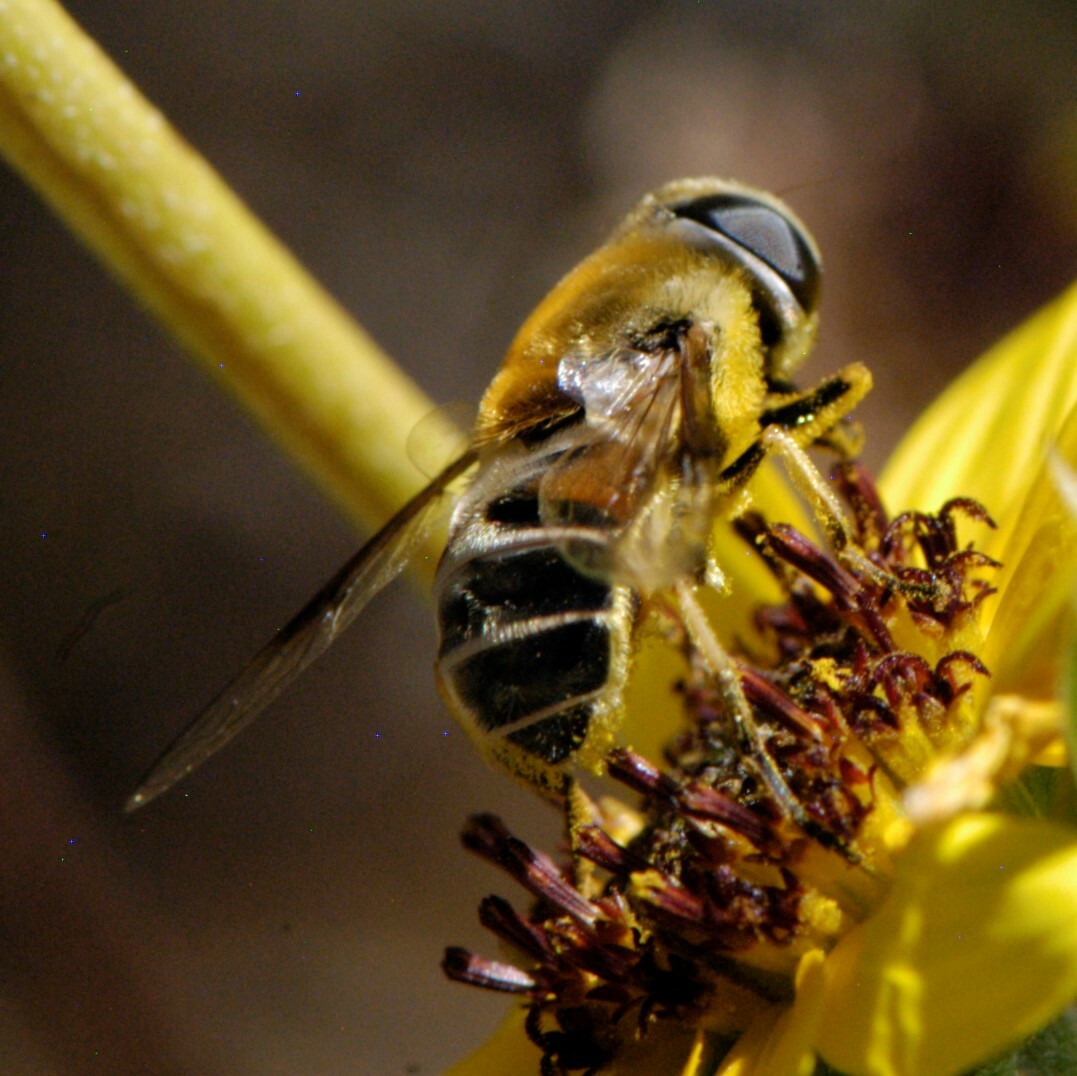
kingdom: Animalia
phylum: Arthropoda
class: Insecta
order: Diptera
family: Syrphidae
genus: Eristalis
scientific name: Eristalis stipator
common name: Yellow-shouldered drone fly
